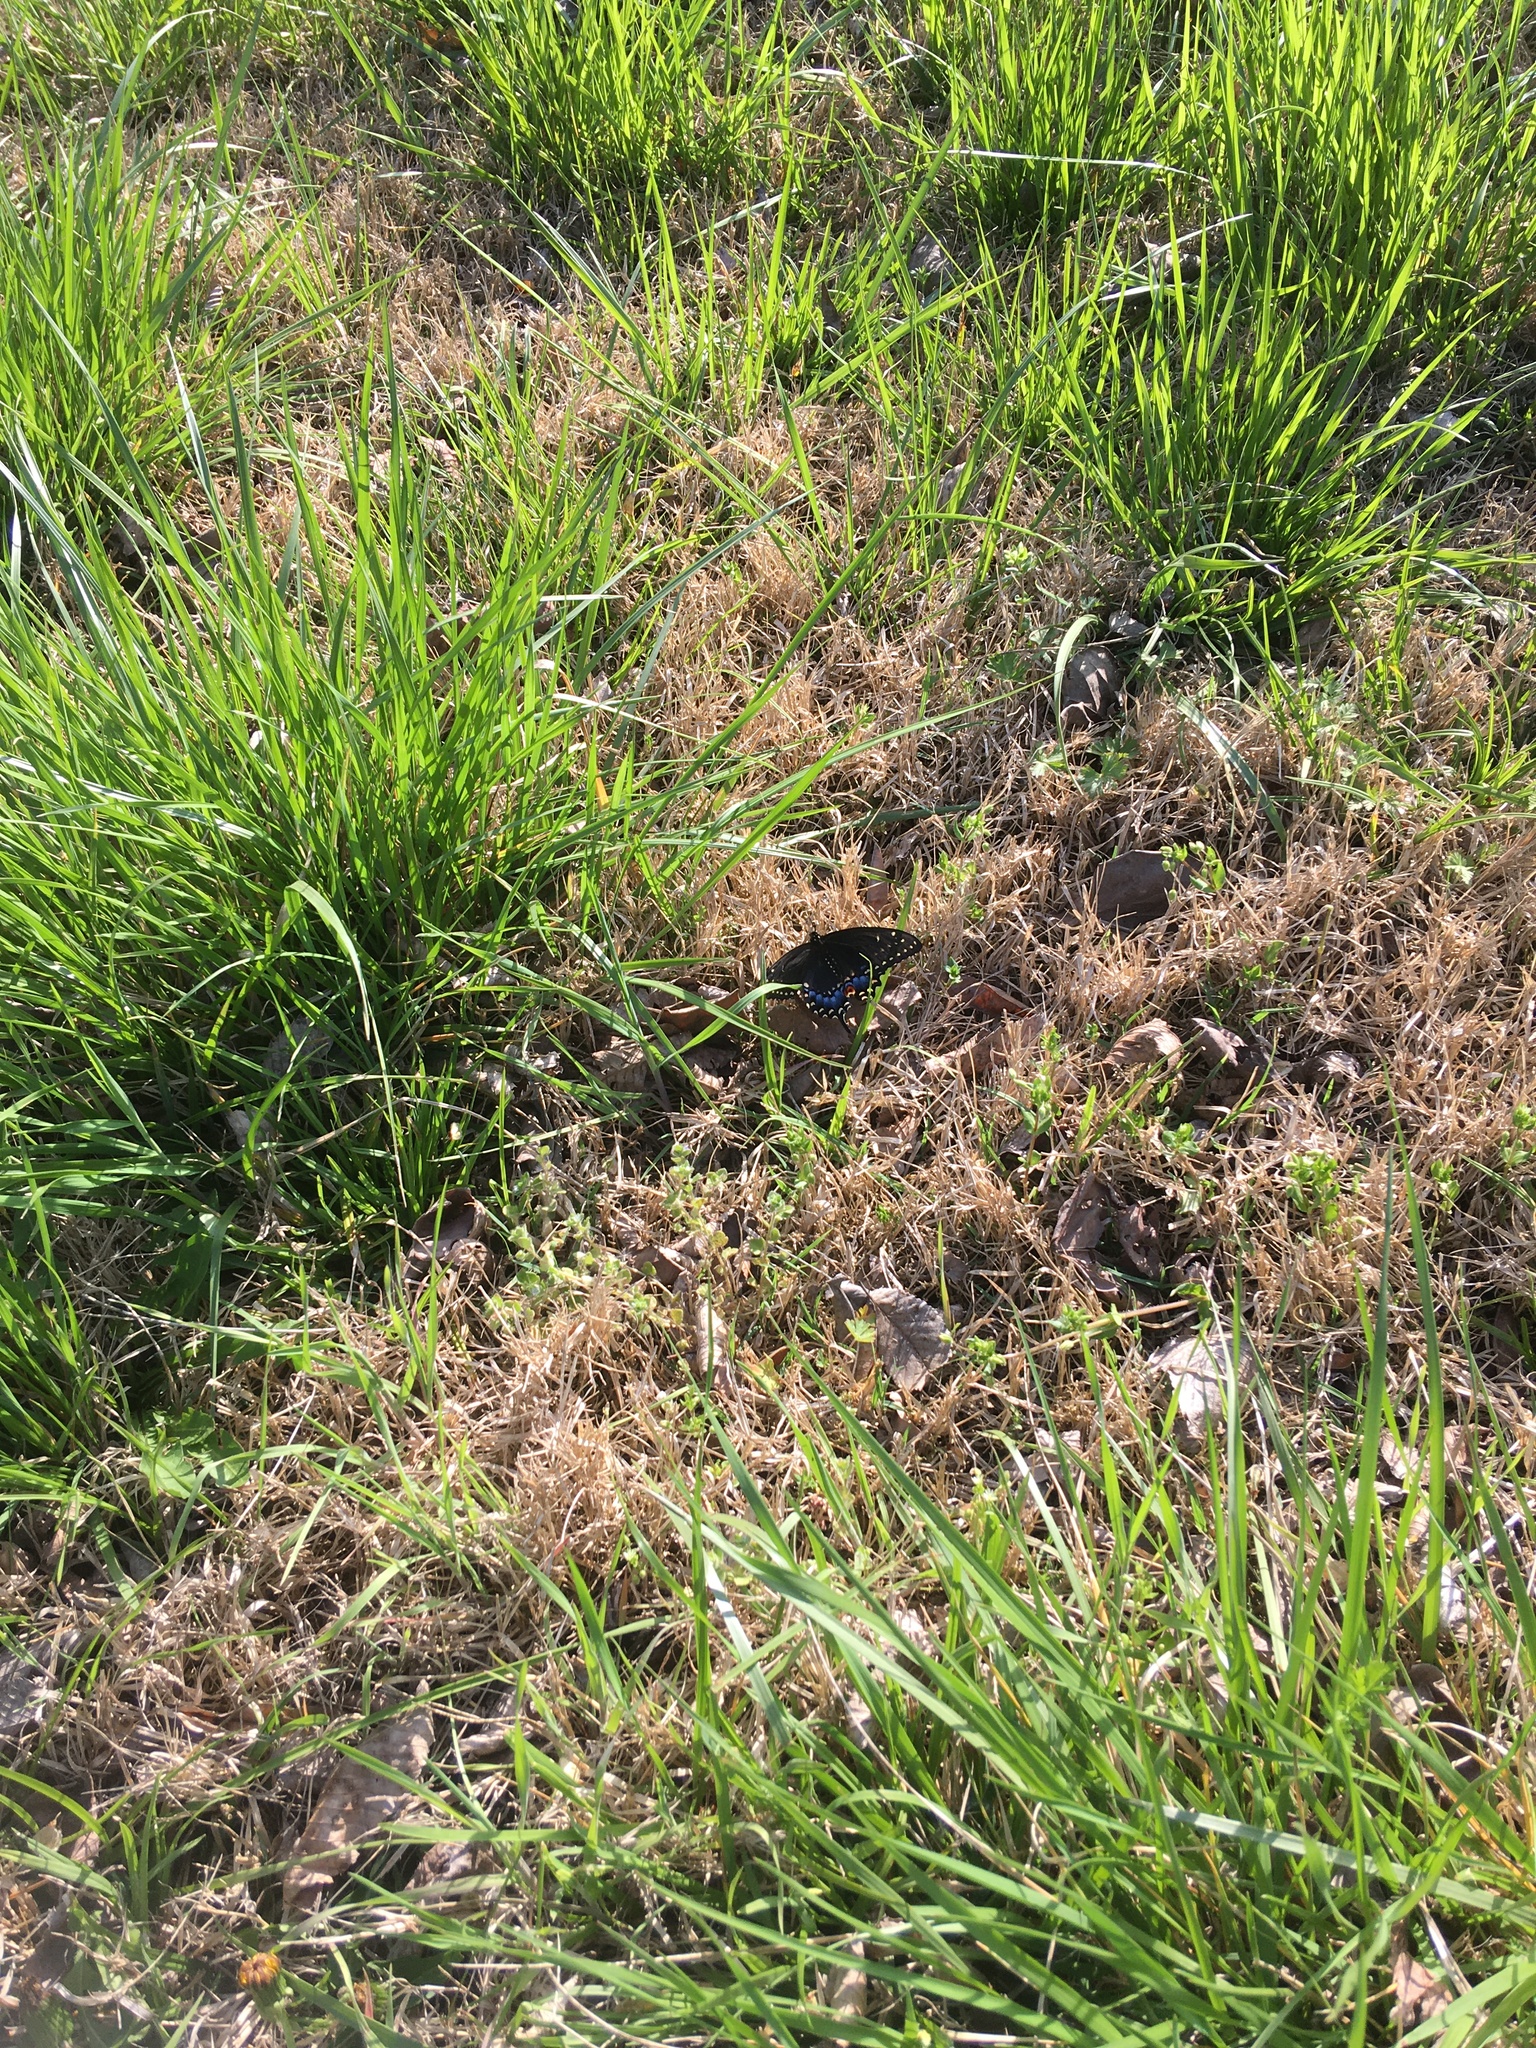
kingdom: Animalia
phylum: Arthropoda
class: Insecta
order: Lepidoptera
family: Papilionidae
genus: Papilio
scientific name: Papilio polyxenes
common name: Black swallowtail
